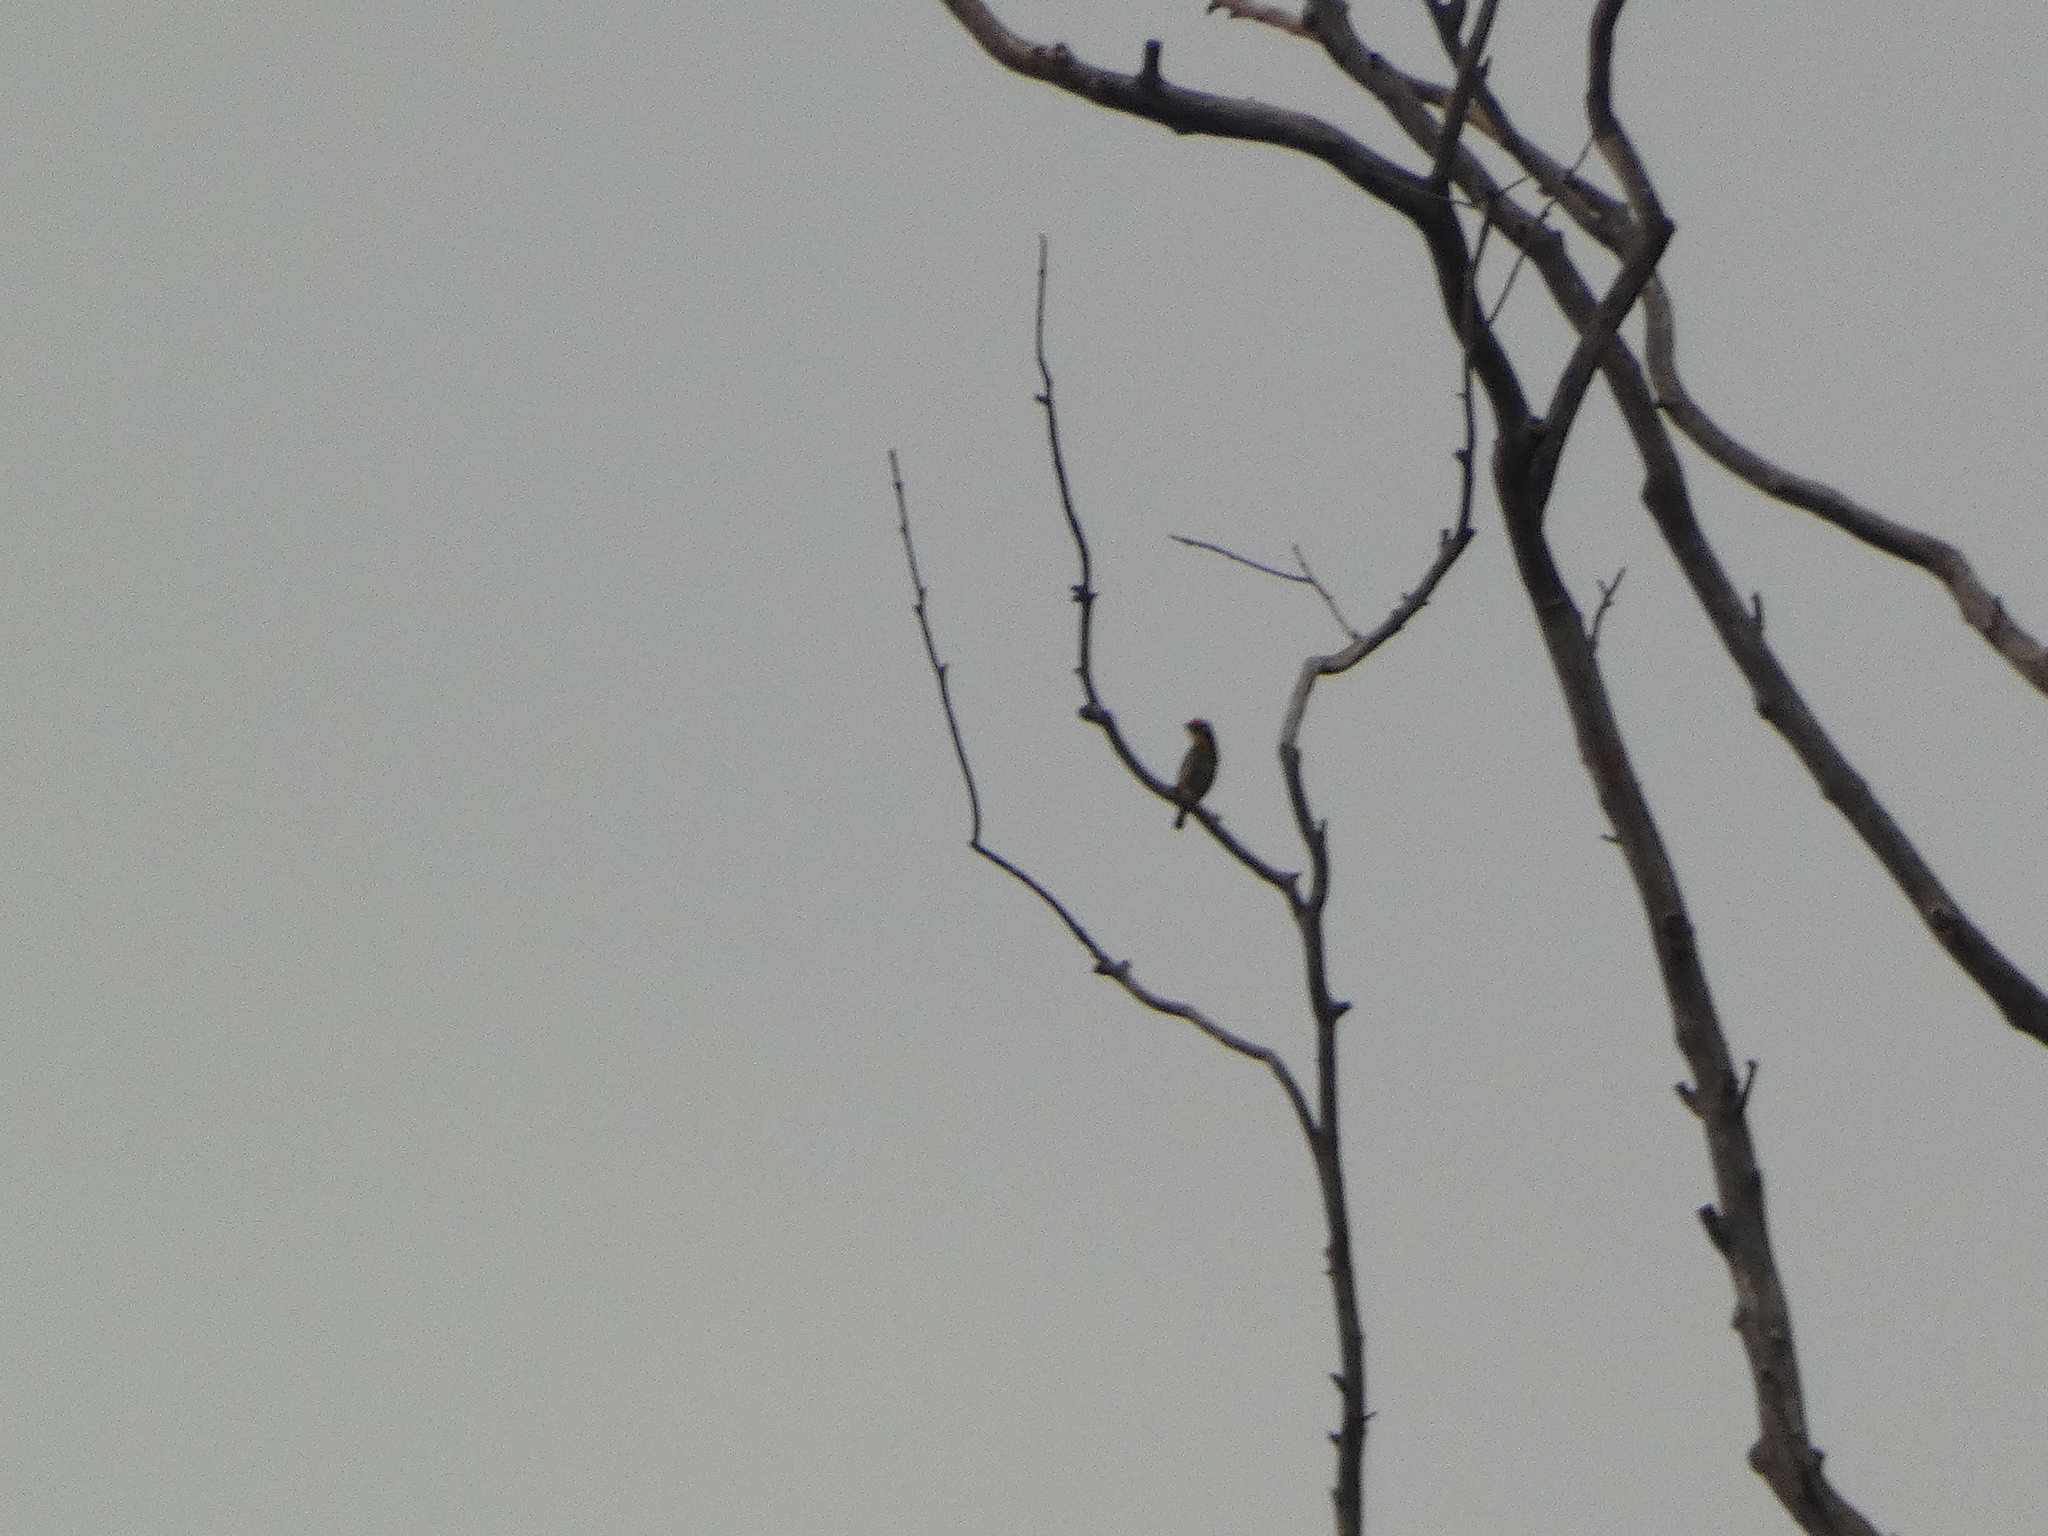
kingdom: Animalia
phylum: Chordata
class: Aves
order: Piciformes
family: Megalaimidae
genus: Psilopogon
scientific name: Psilopogon haemacephalus
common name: Coppersmith barbet
